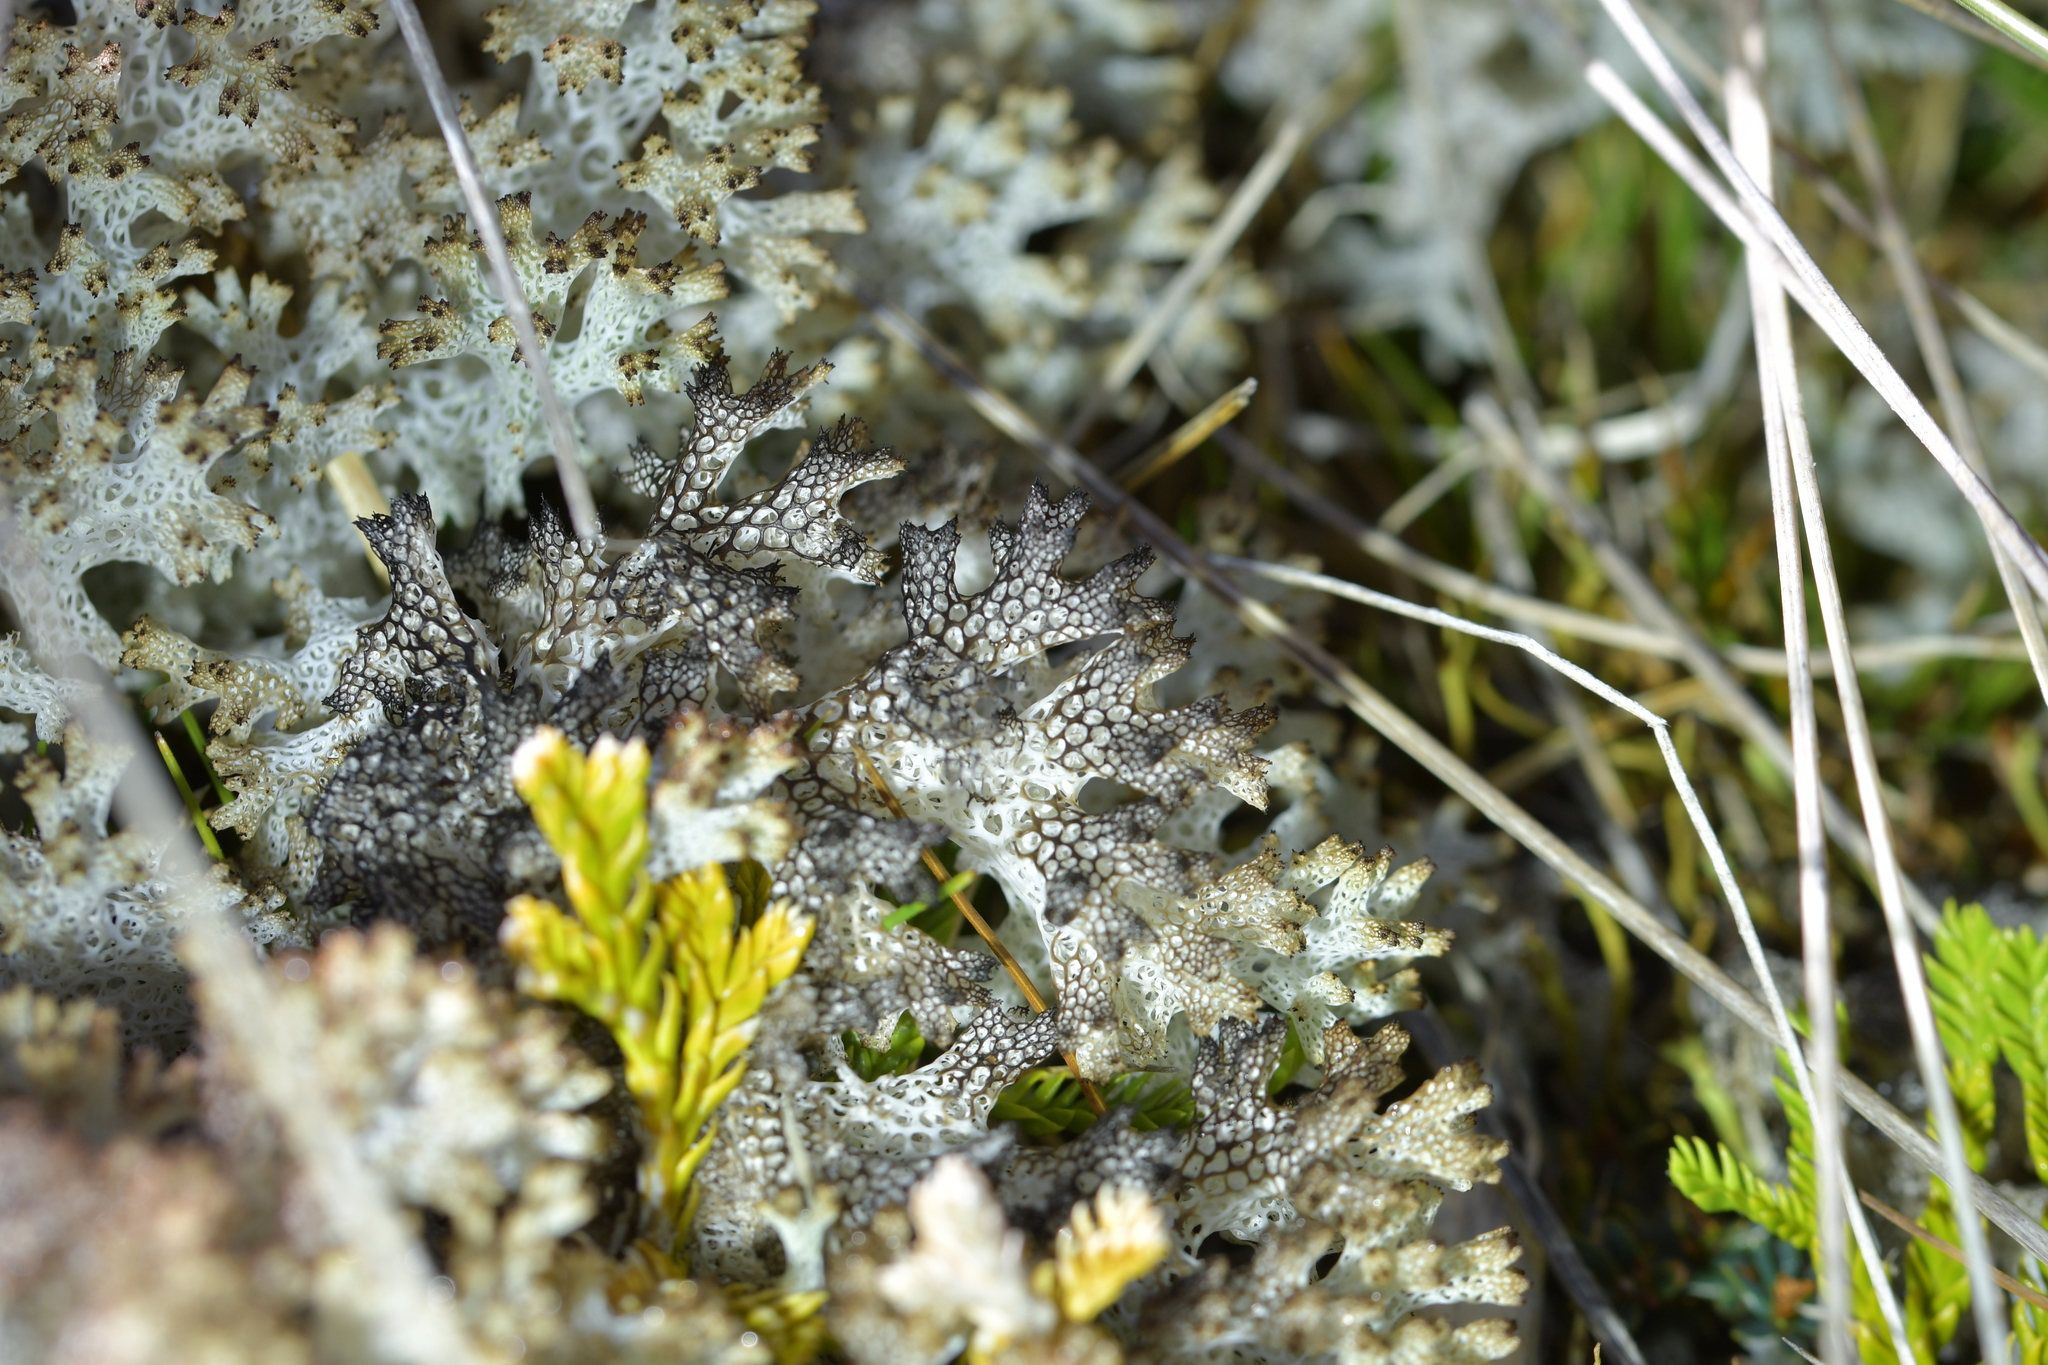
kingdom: Fungi
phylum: Ascomycota
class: Lecanoromycetes
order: Lecanorales
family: Cladoniaceae
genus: Pulchrocladia
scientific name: Pulchrocladia retipora
